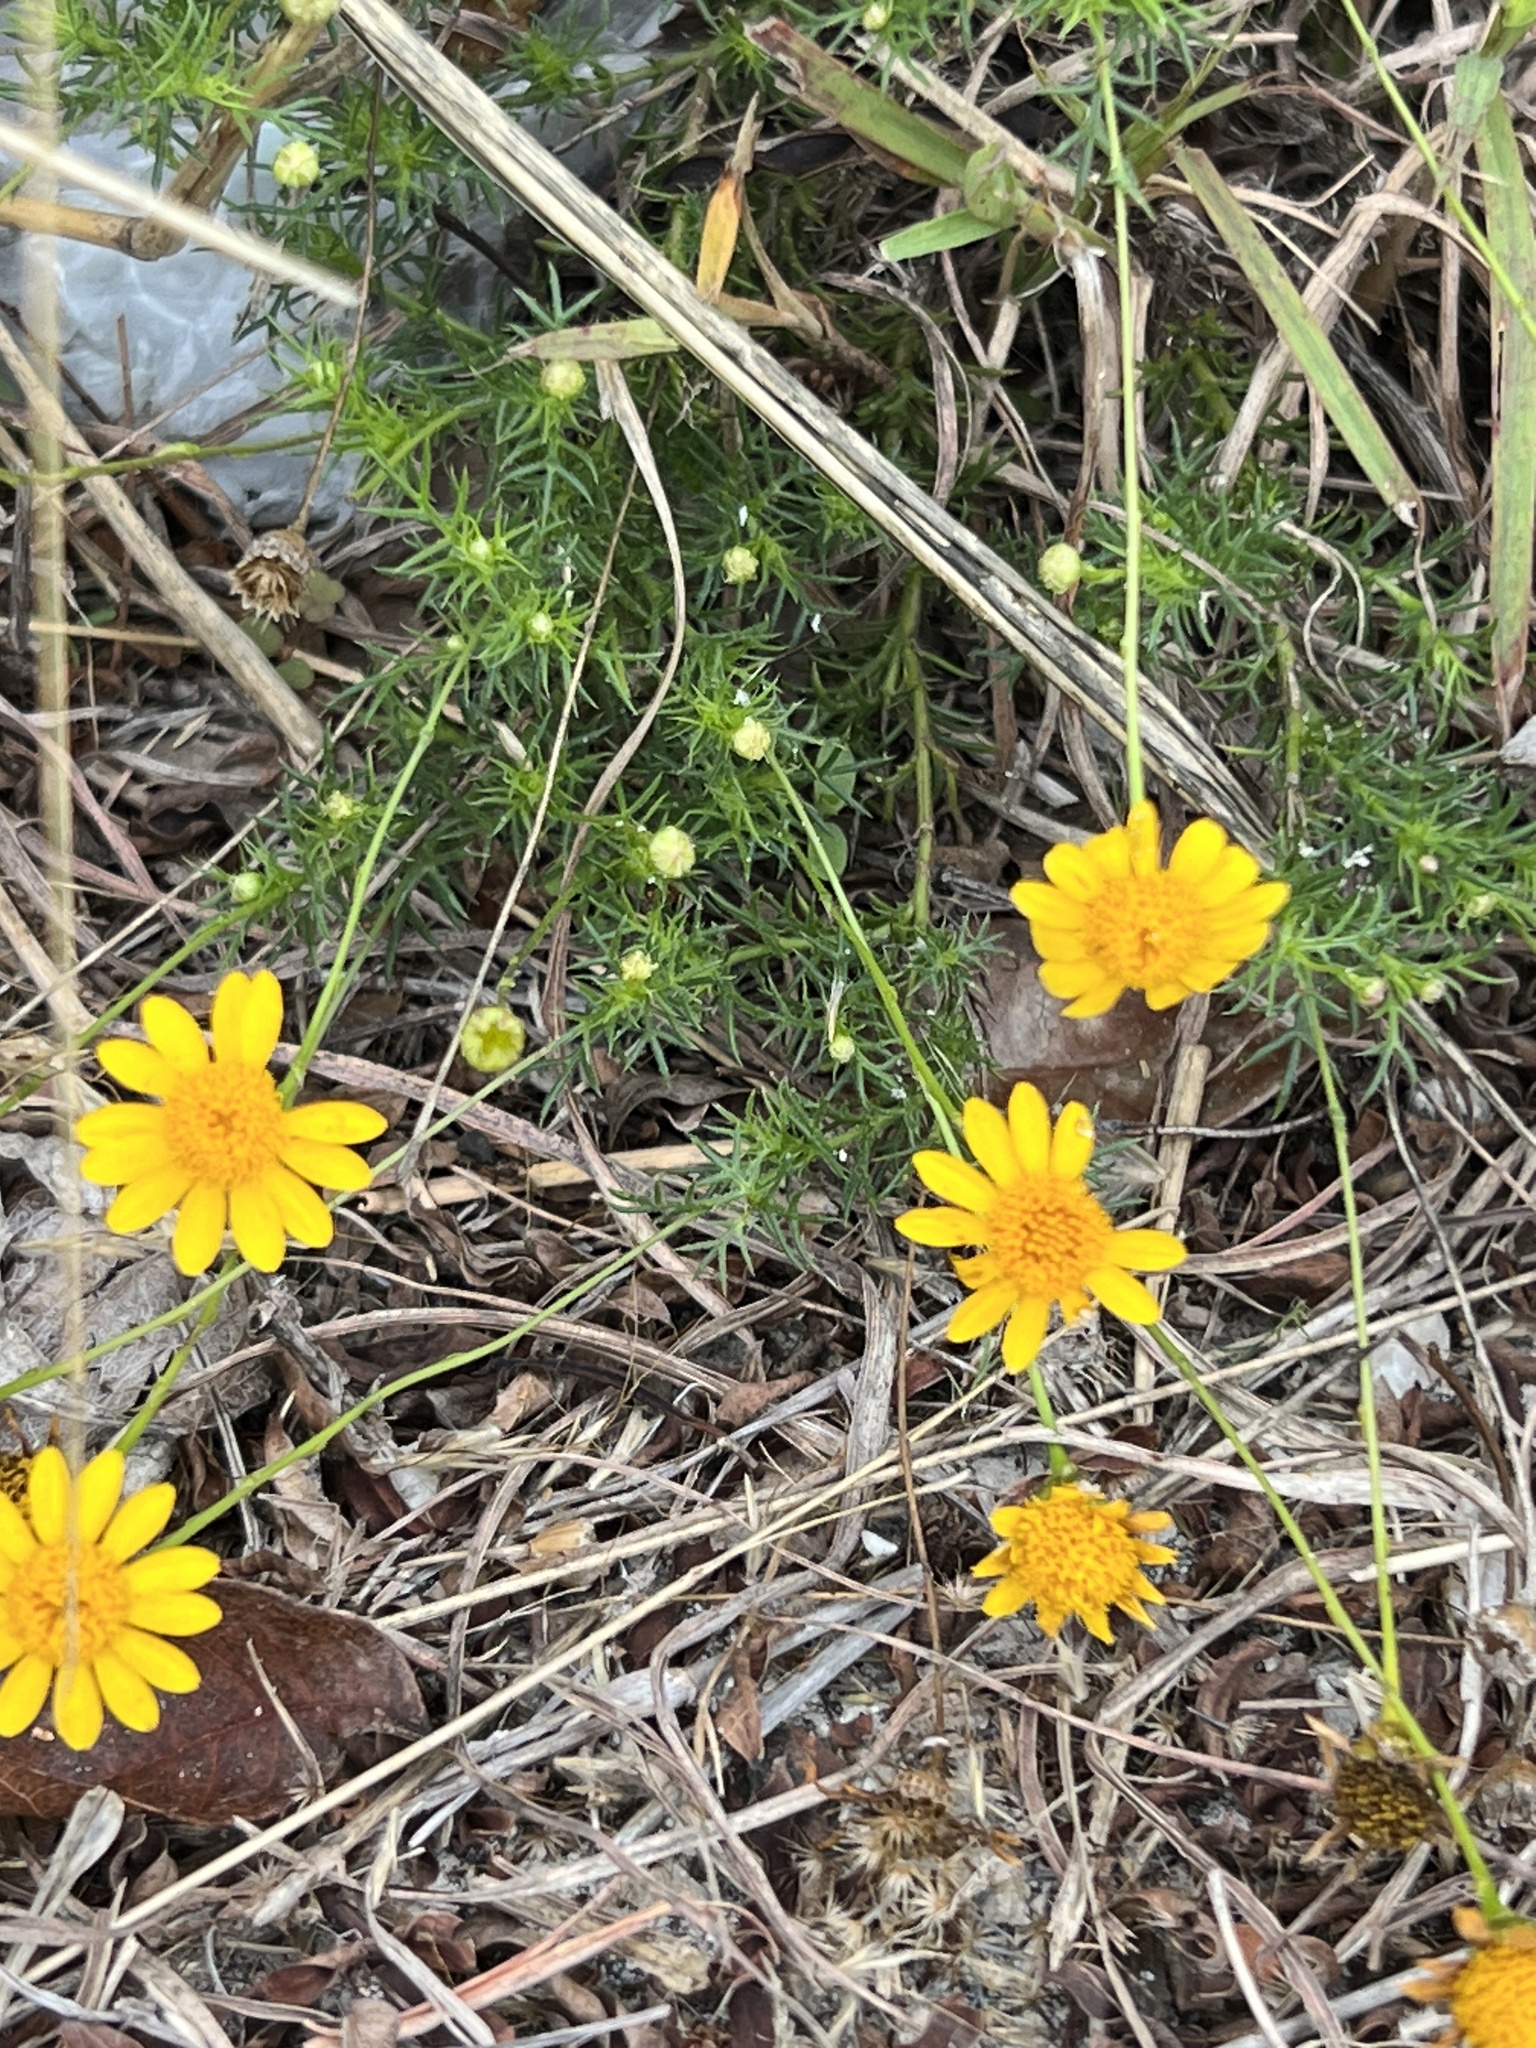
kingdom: Plantae
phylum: Tracheophyta
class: Magnoliopsida
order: Asterales
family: Asteraceae
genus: Thymophylla
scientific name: Thymophylla tenuiloba
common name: Dahlberg's daisy
